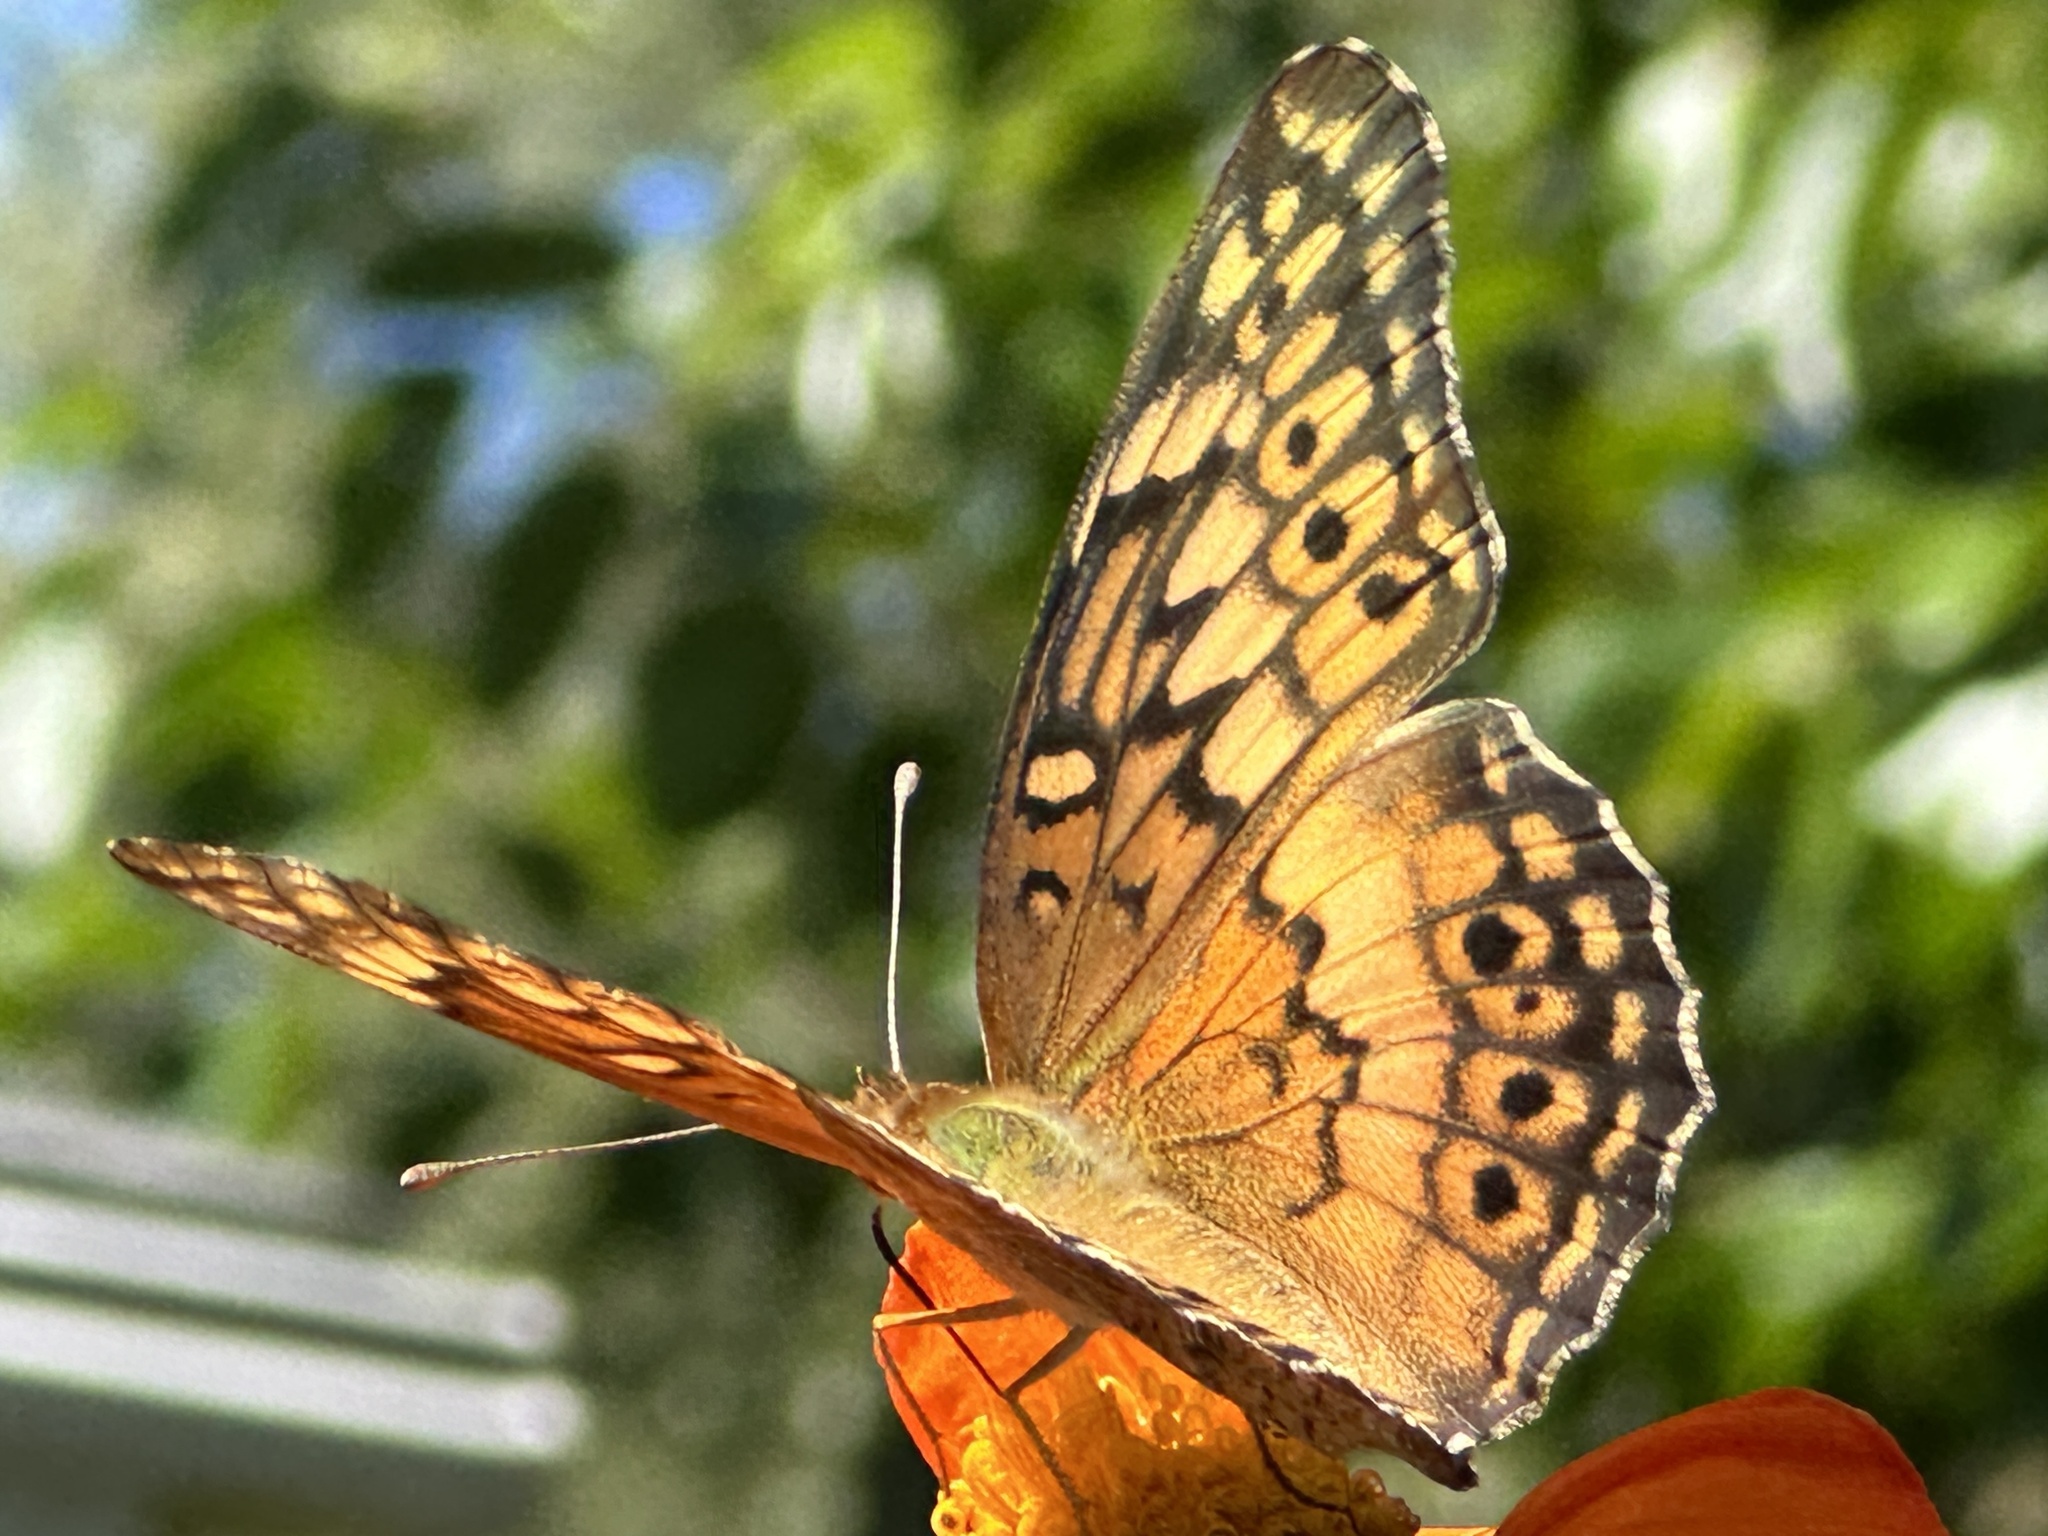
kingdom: Animalia
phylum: Arthropoda
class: Insecta
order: Lepidoptera
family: Nymphalidae
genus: Euptoieta
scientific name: Euptoieta claudia
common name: Variegated fritillary
